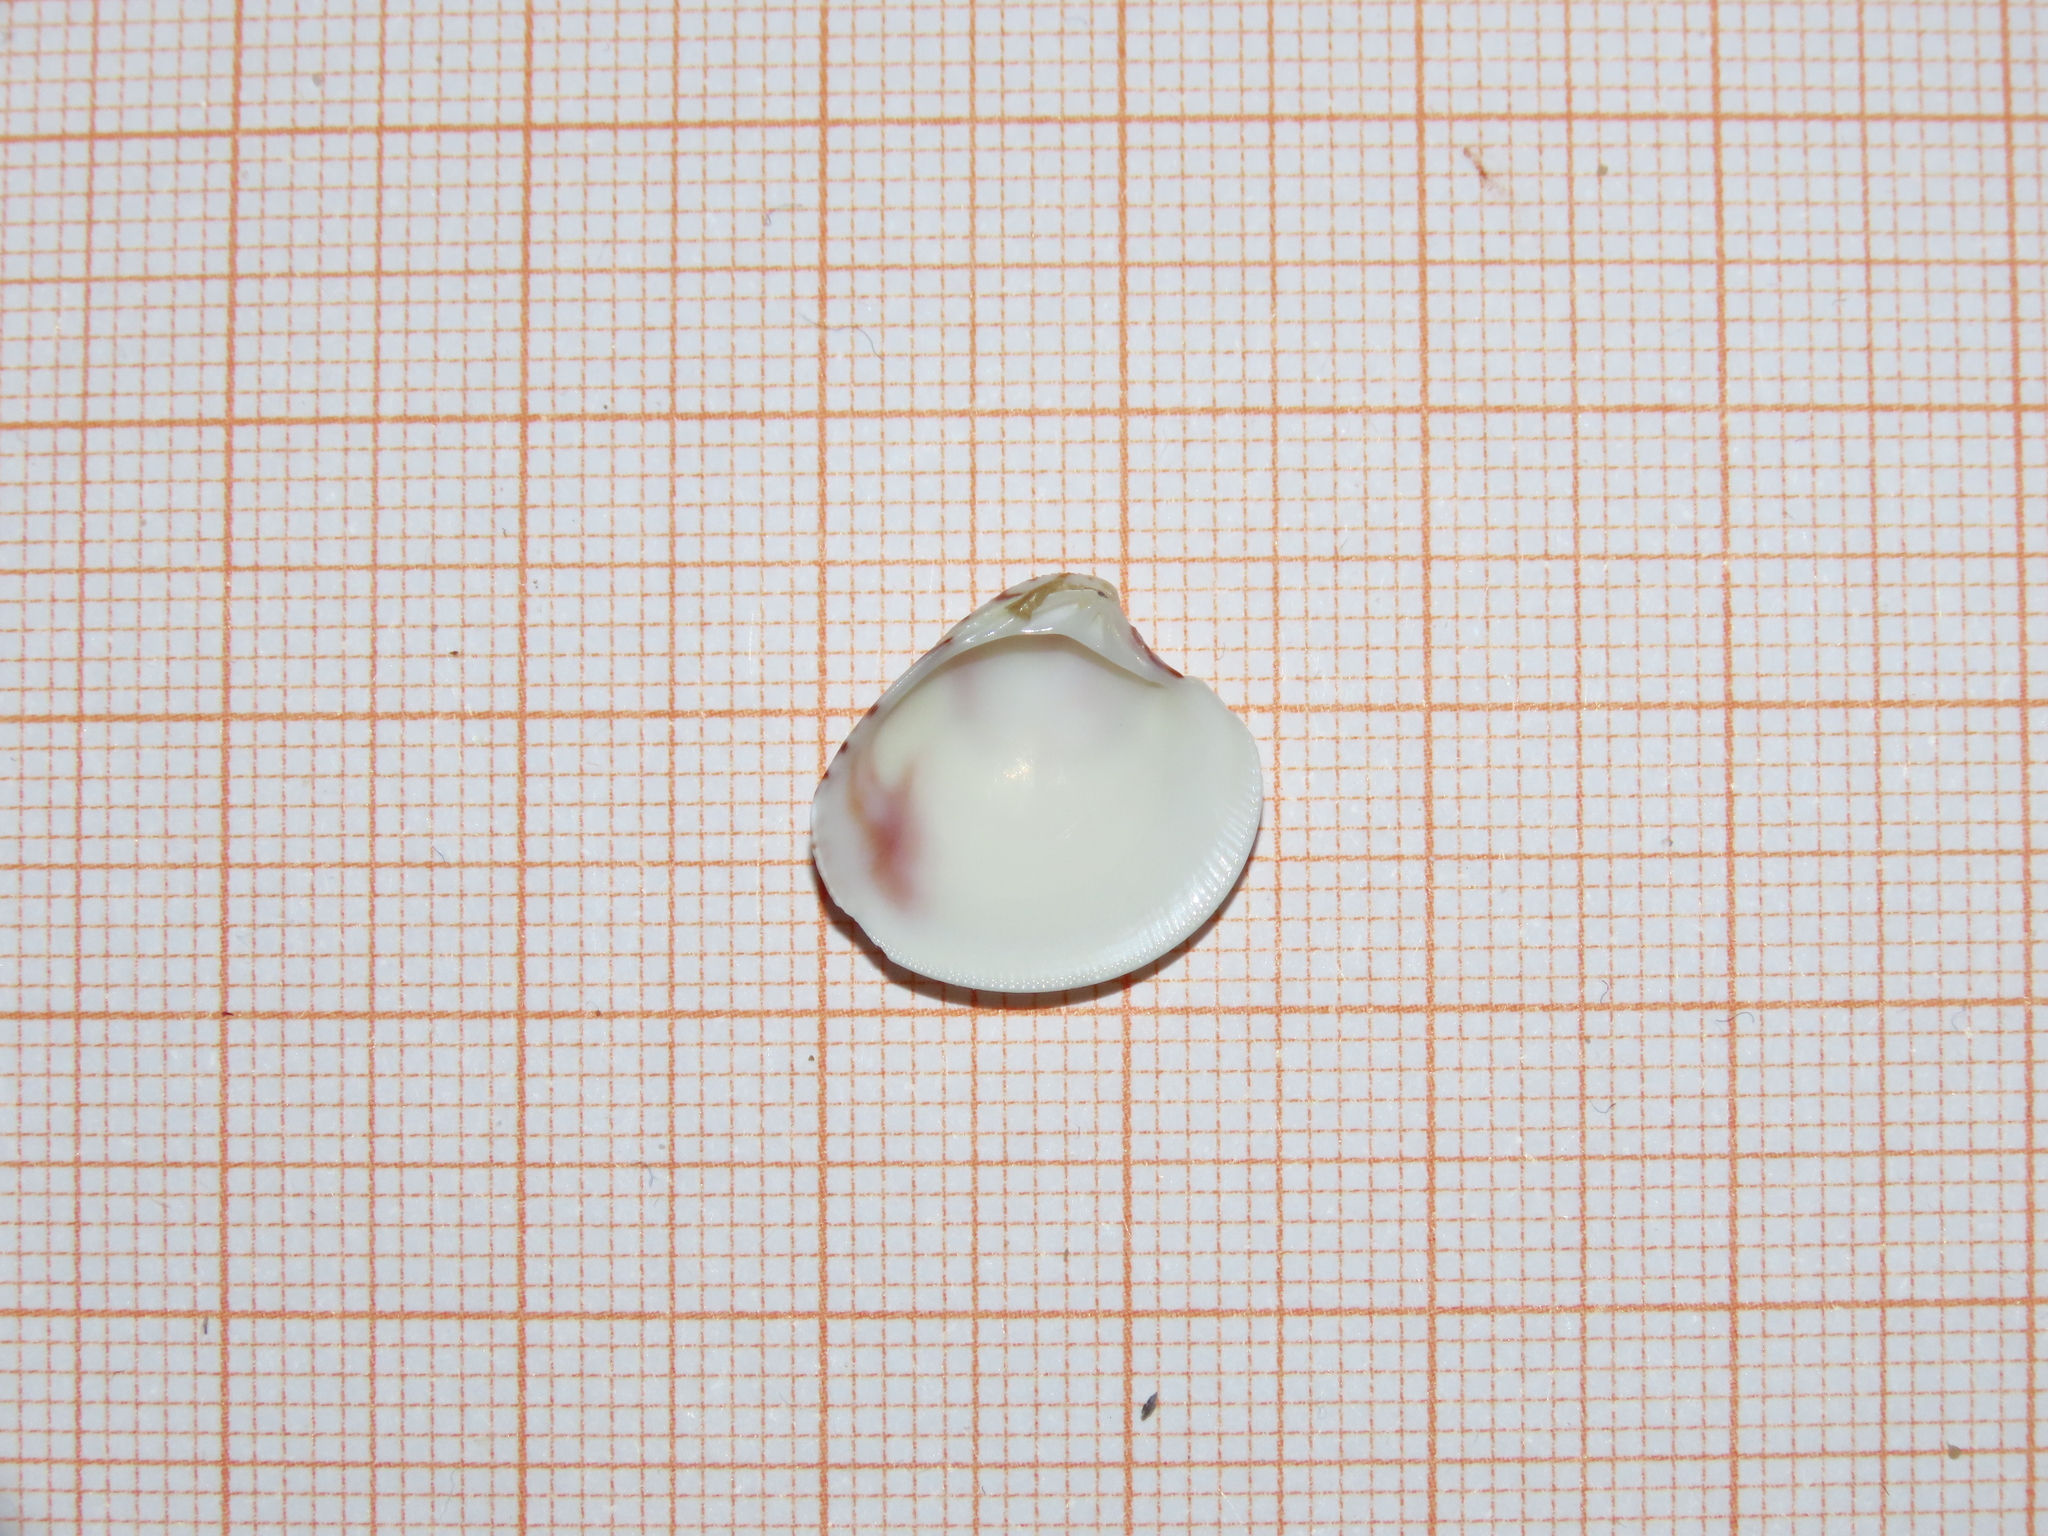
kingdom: Animalia
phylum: Mollusca
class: Bivalvia
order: Venerida
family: Veneridae
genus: Chamelea
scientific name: Chamelea gallina
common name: Chicken venus
